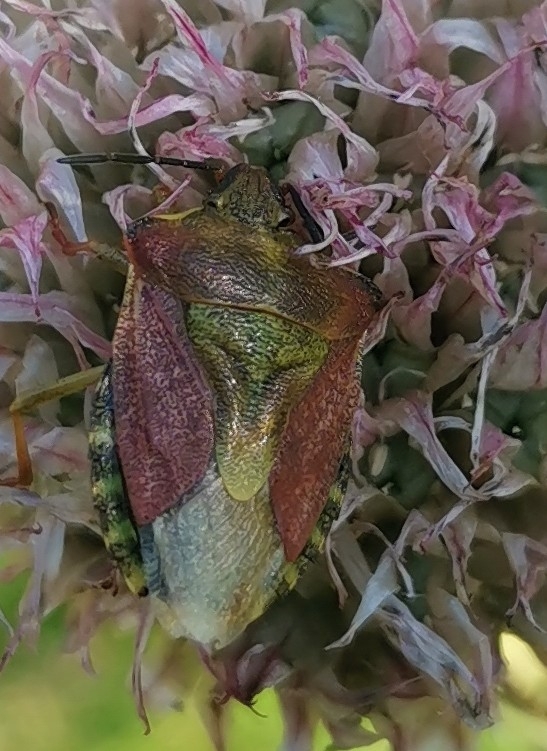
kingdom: Animalia
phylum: Arthropoda
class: Insecta
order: Hemiptera
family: Pentatomidae
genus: Carpocoris
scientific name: Carpocoris purpureipennis
